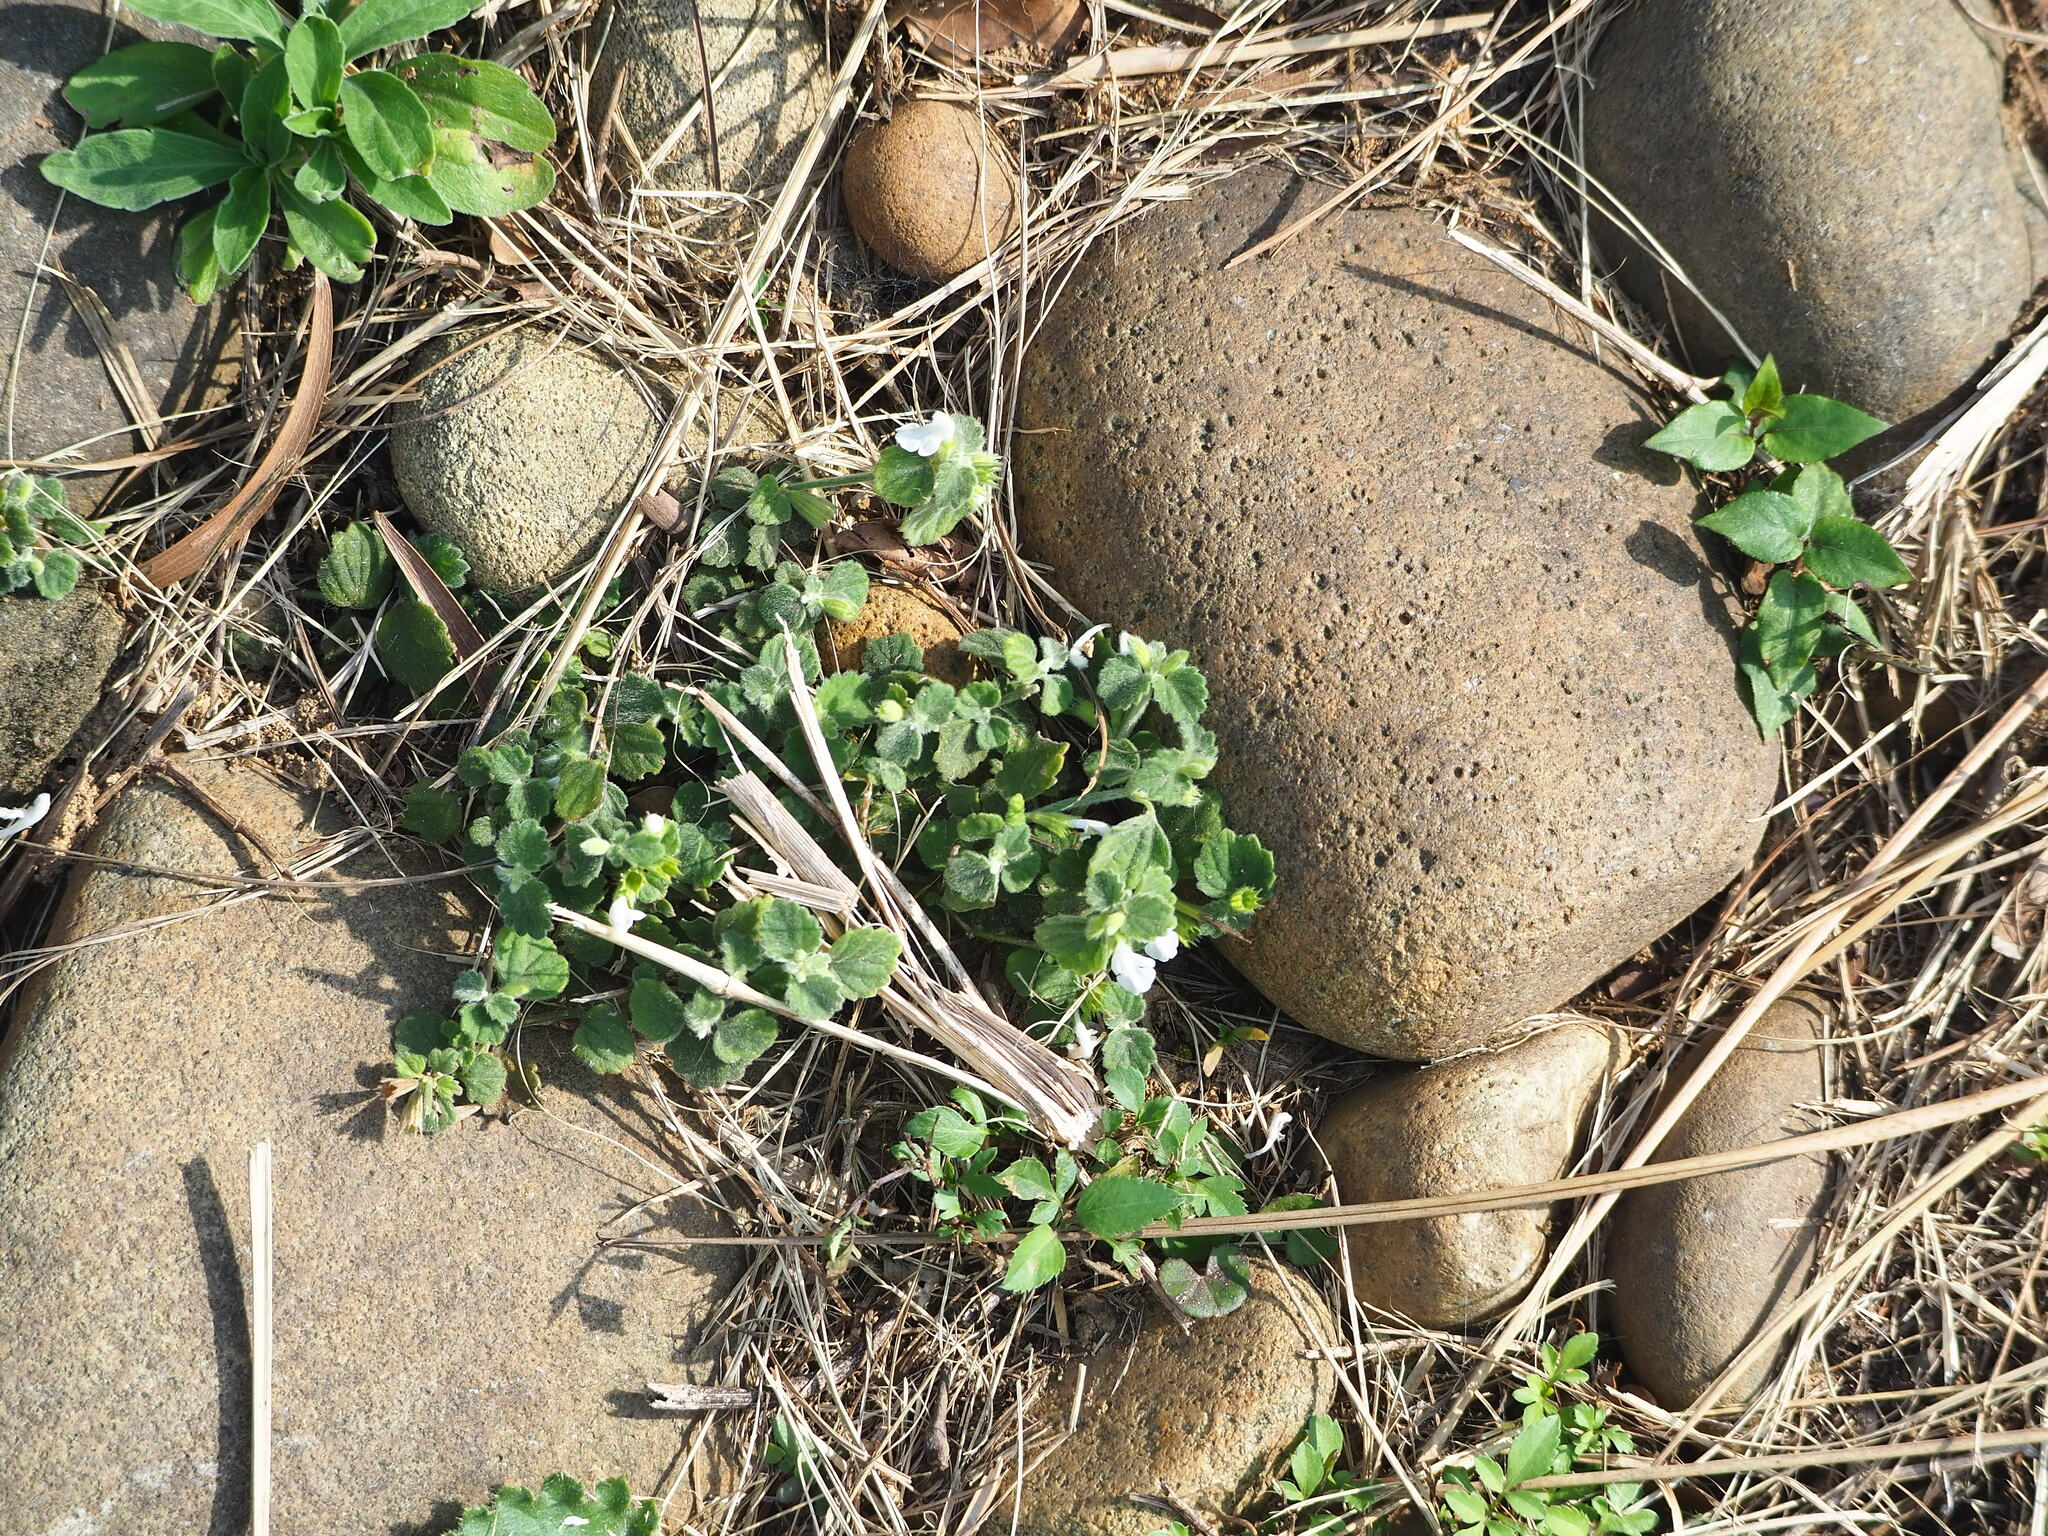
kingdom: Plantae
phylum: Tracheophyta
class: Magnoliopsida
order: Lamiales
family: Lamiaceae
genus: Leucas
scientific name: Leucas chinensis
